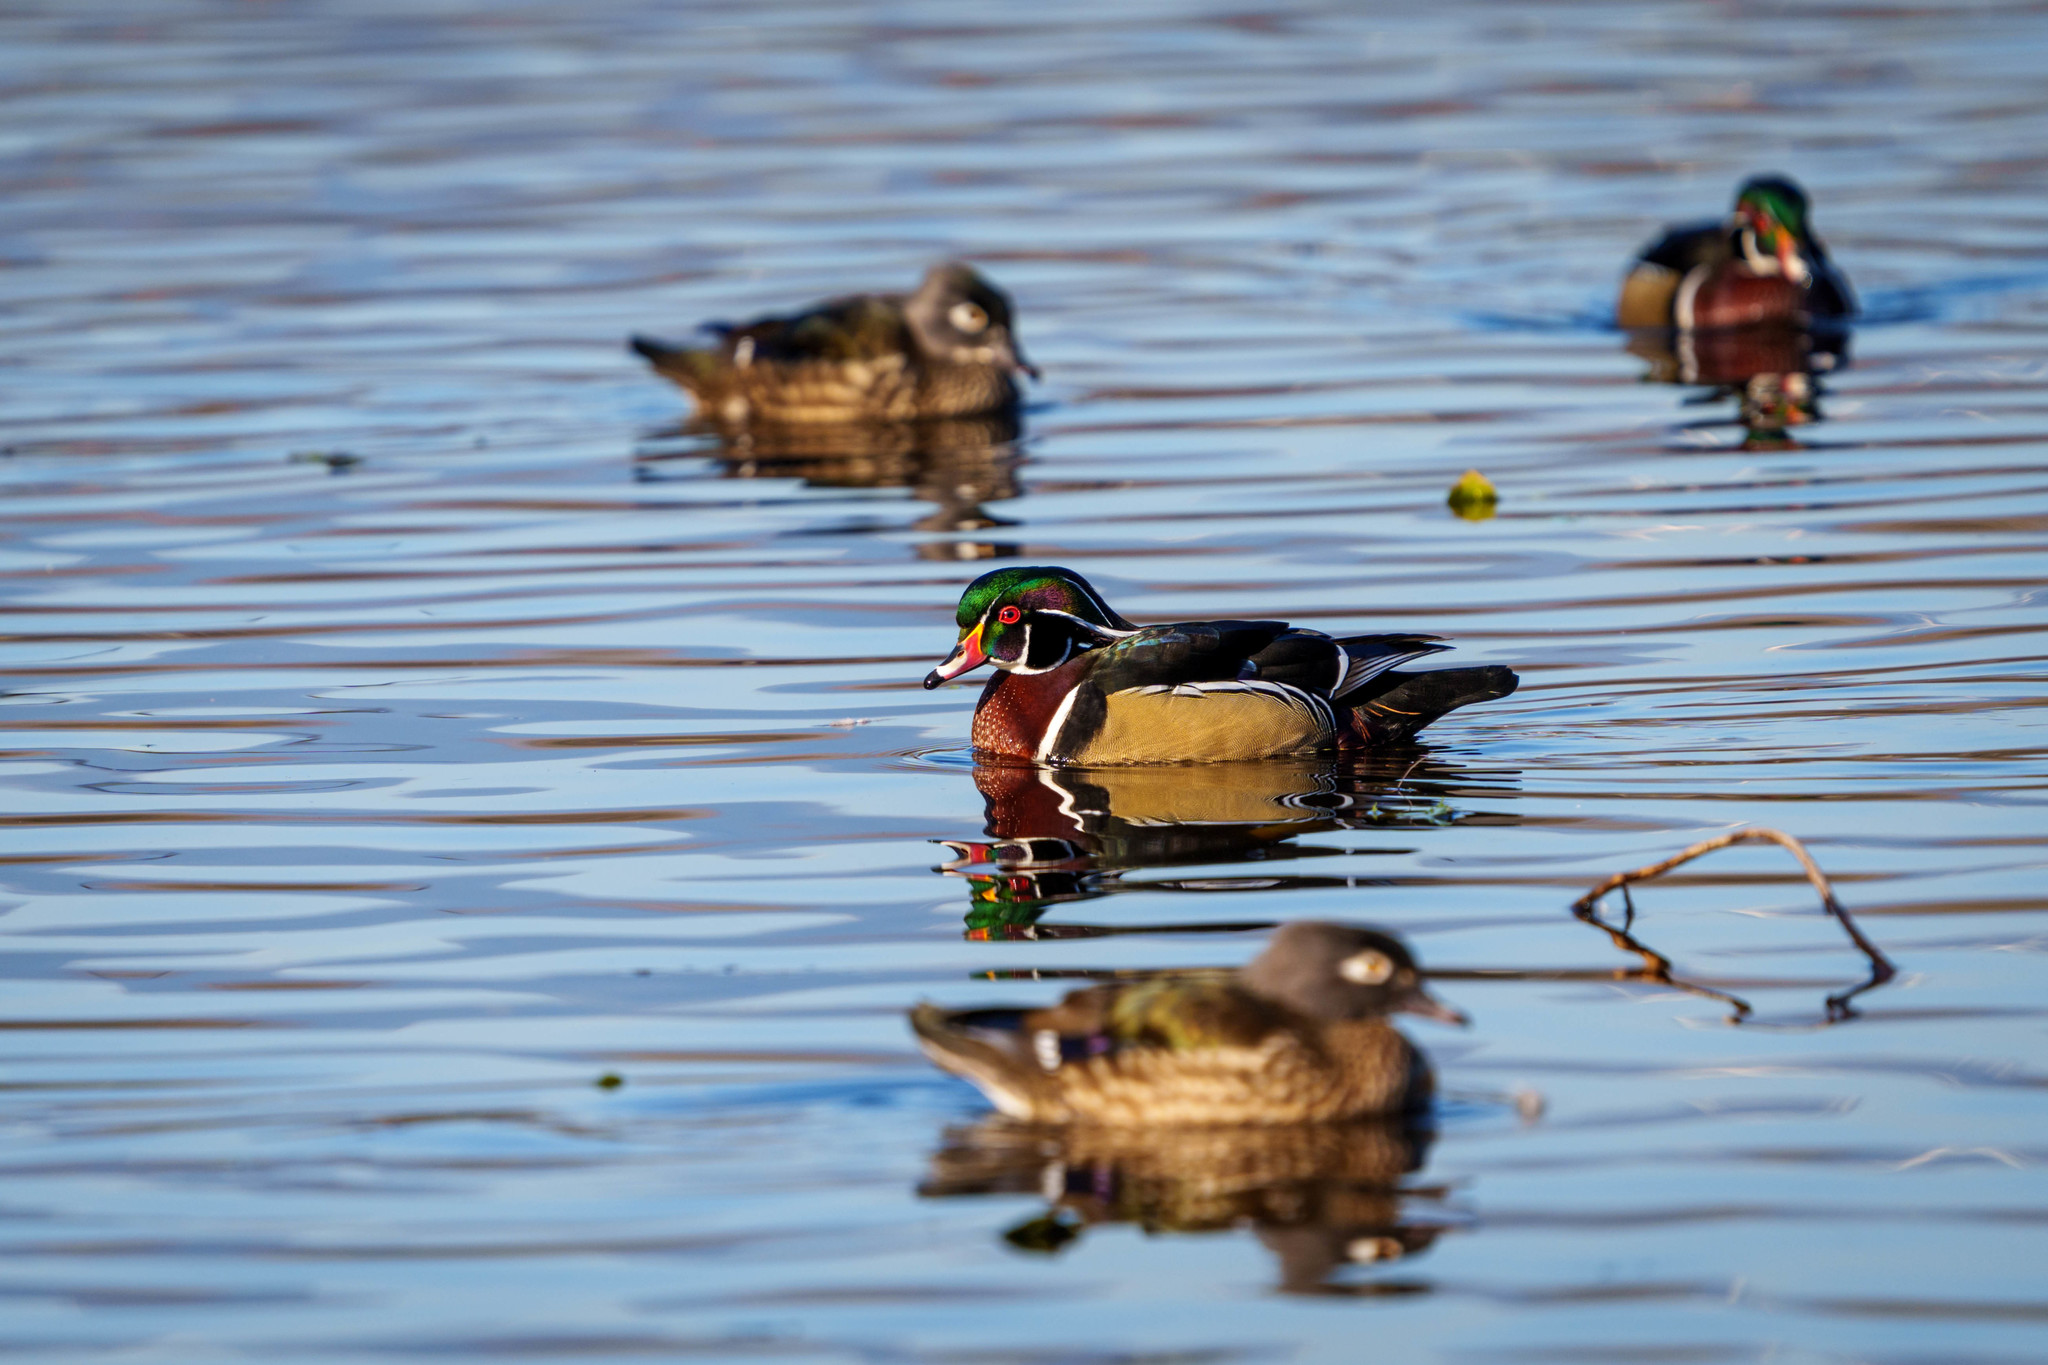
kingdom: Animalia
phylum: Chordata
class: Aves
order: Anseriformes
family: Anatidae
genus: Aix
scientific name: Aix sponsa
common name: Wood duck
